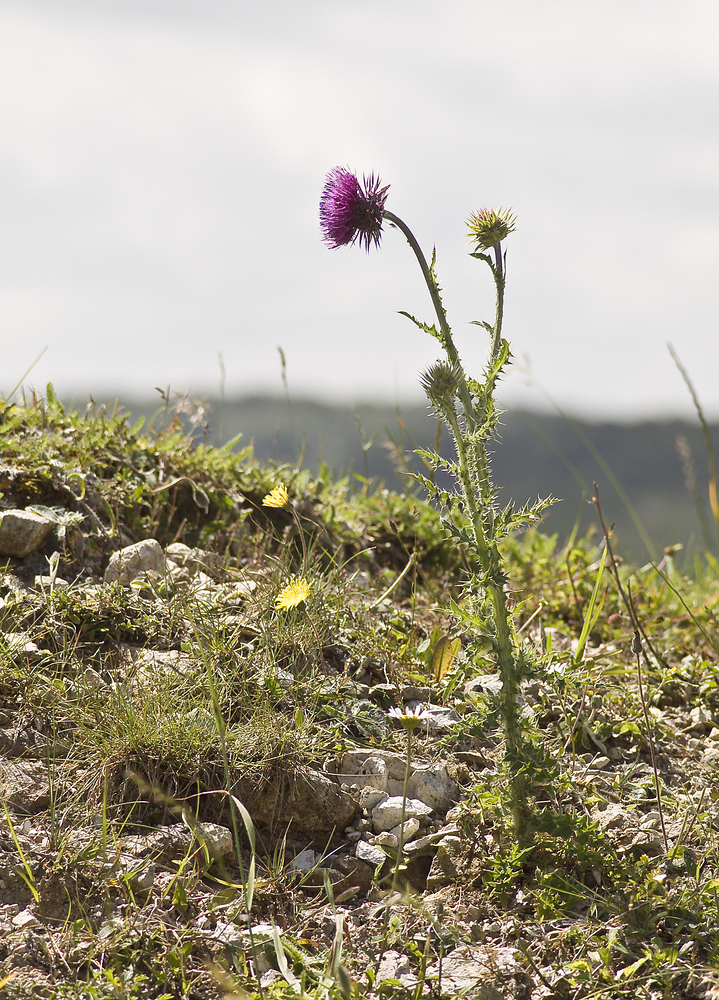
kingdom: Plantae
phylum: Tracheophyta
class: Magnoliopsida
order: Asterales
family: Asteraceae
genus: Carduus
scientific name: Carduus nutans
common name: Musk thistle
